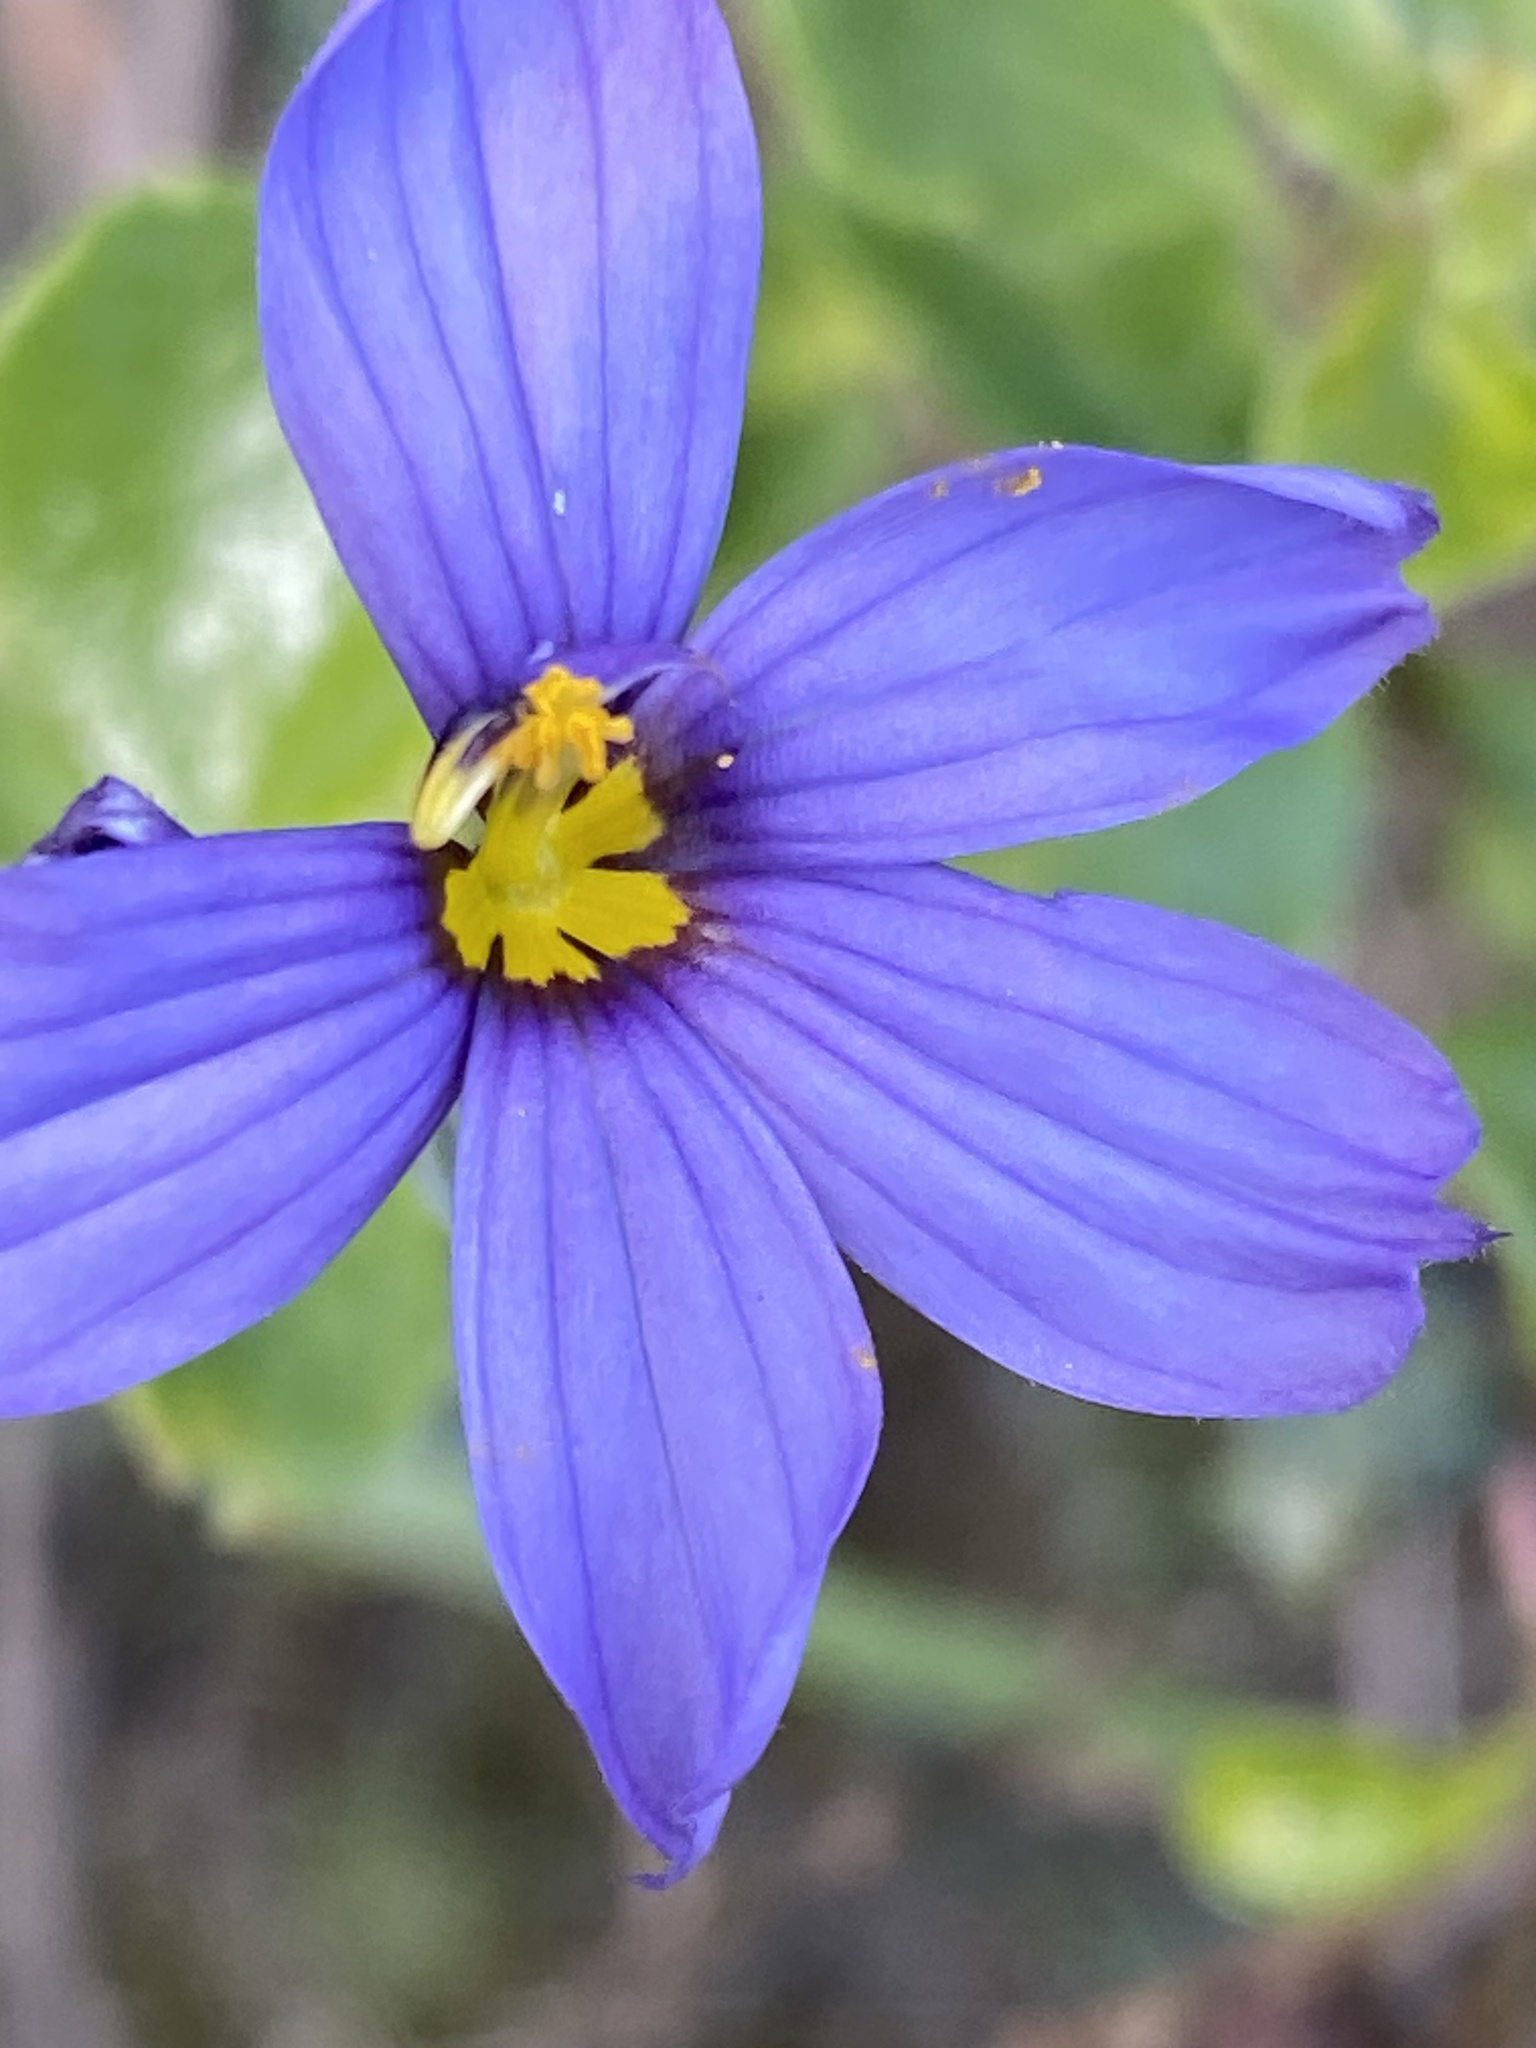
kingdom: Plantae
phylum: Tracheophyta
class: Liliopsida
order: Asparagales
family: Iridaceae
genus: Sisyrinchium
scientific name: Sisyrinchium bellum
